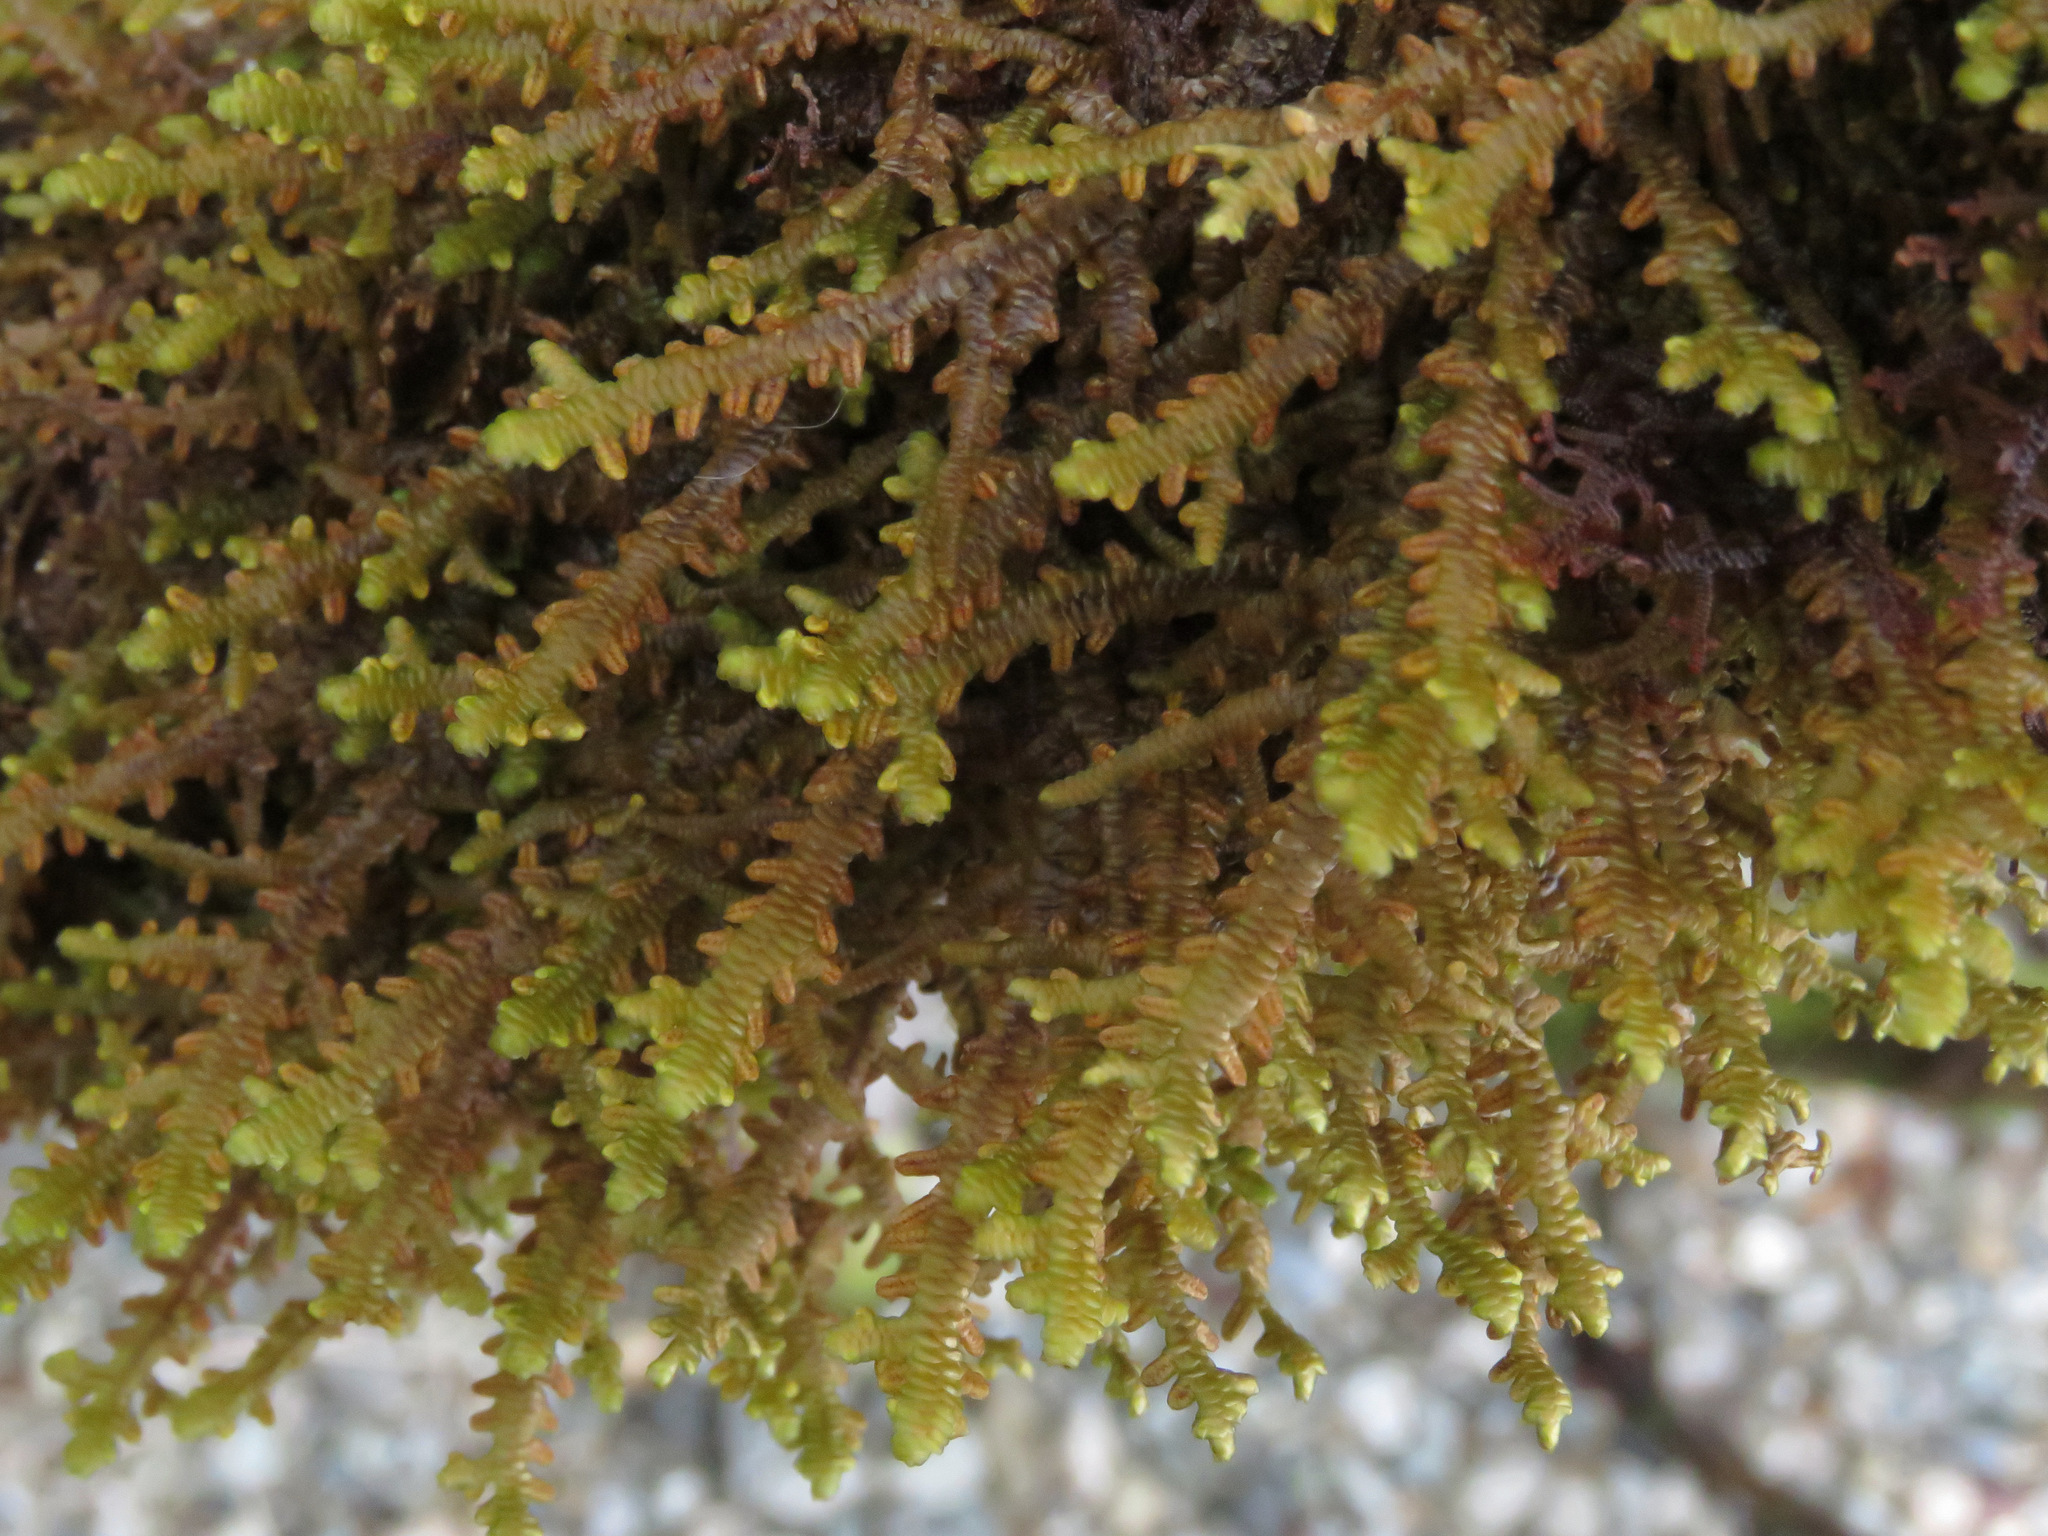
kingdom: Plantae
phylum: Marchantiophyta
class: Jungermanniopsida
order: Porellales
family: Porellaceae
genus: Porella
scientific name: Porella navicularis
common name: Tree ruffle liverwort
